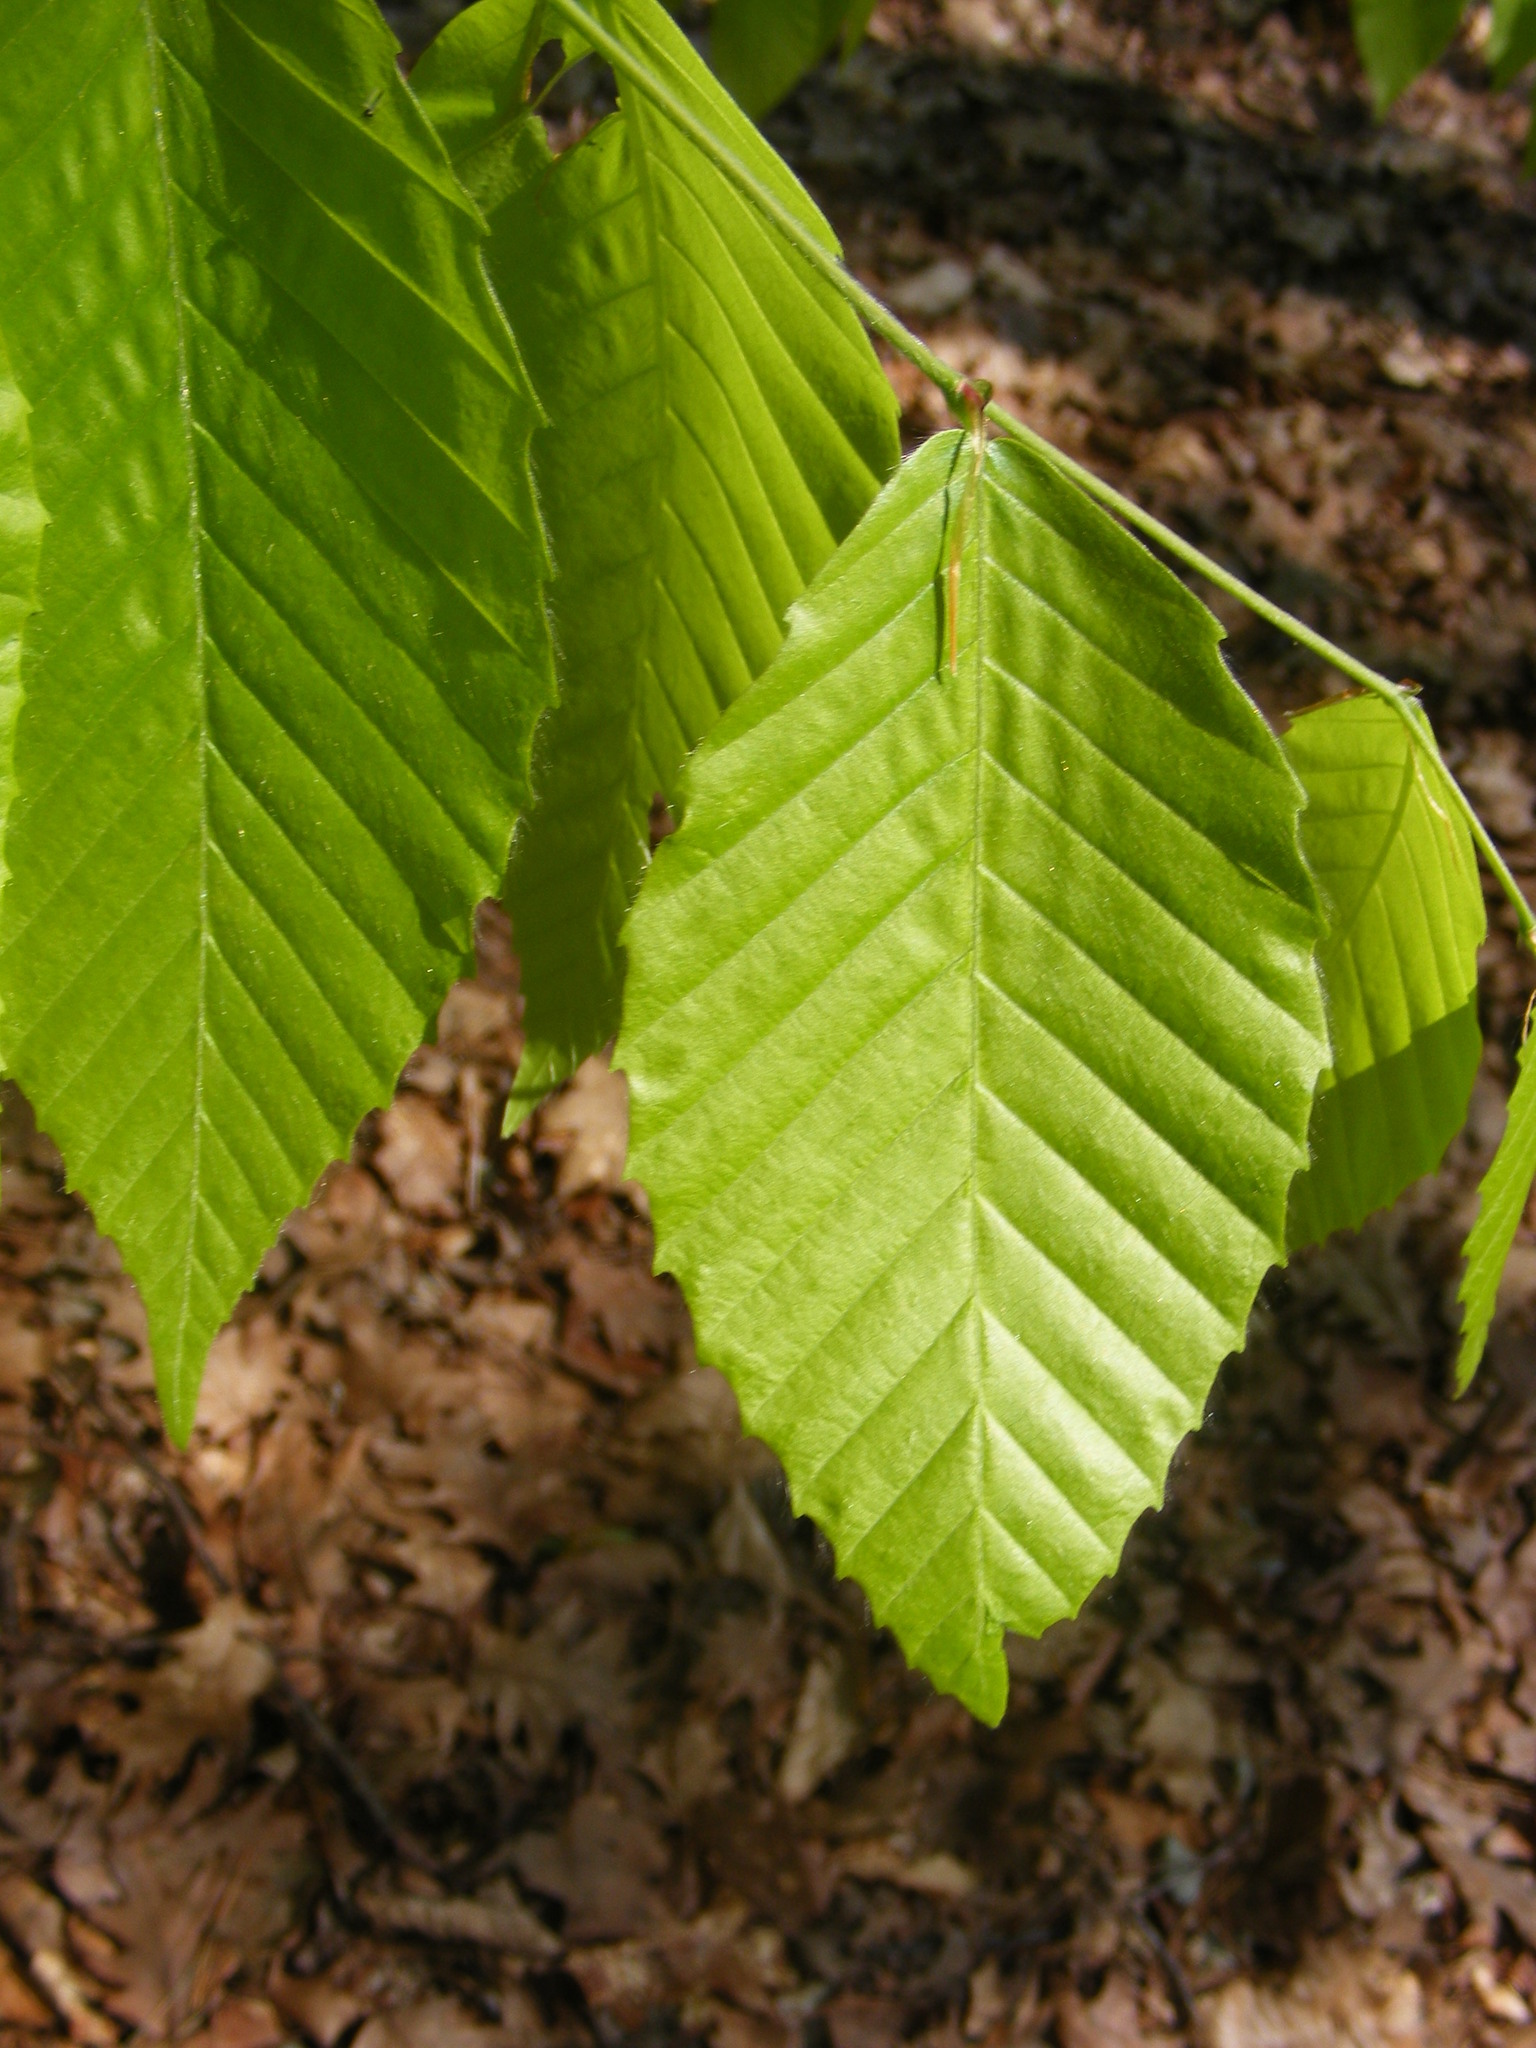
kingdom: Plantae
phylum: Tracheophyta
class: Magnoliopsida
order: Fagales
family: Fagaceae
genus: Fagus
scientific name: Fagus grandifolia
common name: American beech
